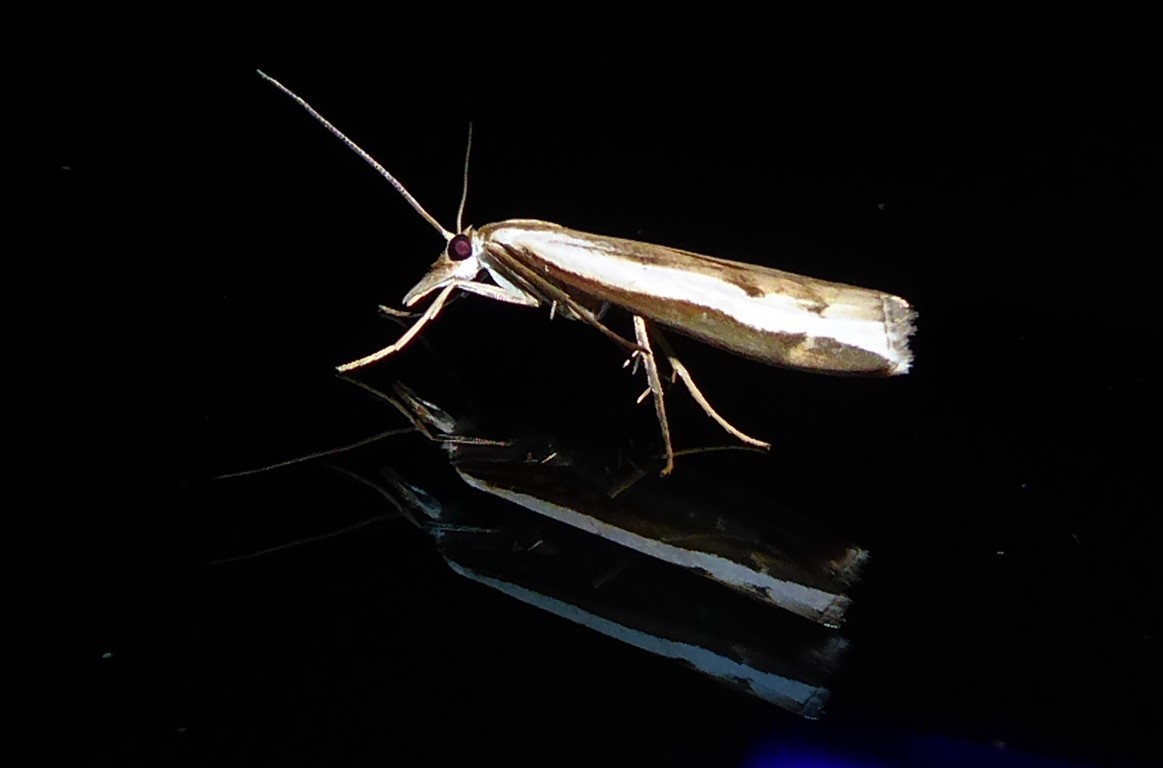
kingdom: Animalia
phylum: Arthropoda
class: Insecta
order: Lepidoptera
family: Crambidae
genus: Orocrambus
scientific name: Orocrambus flexuosellus
